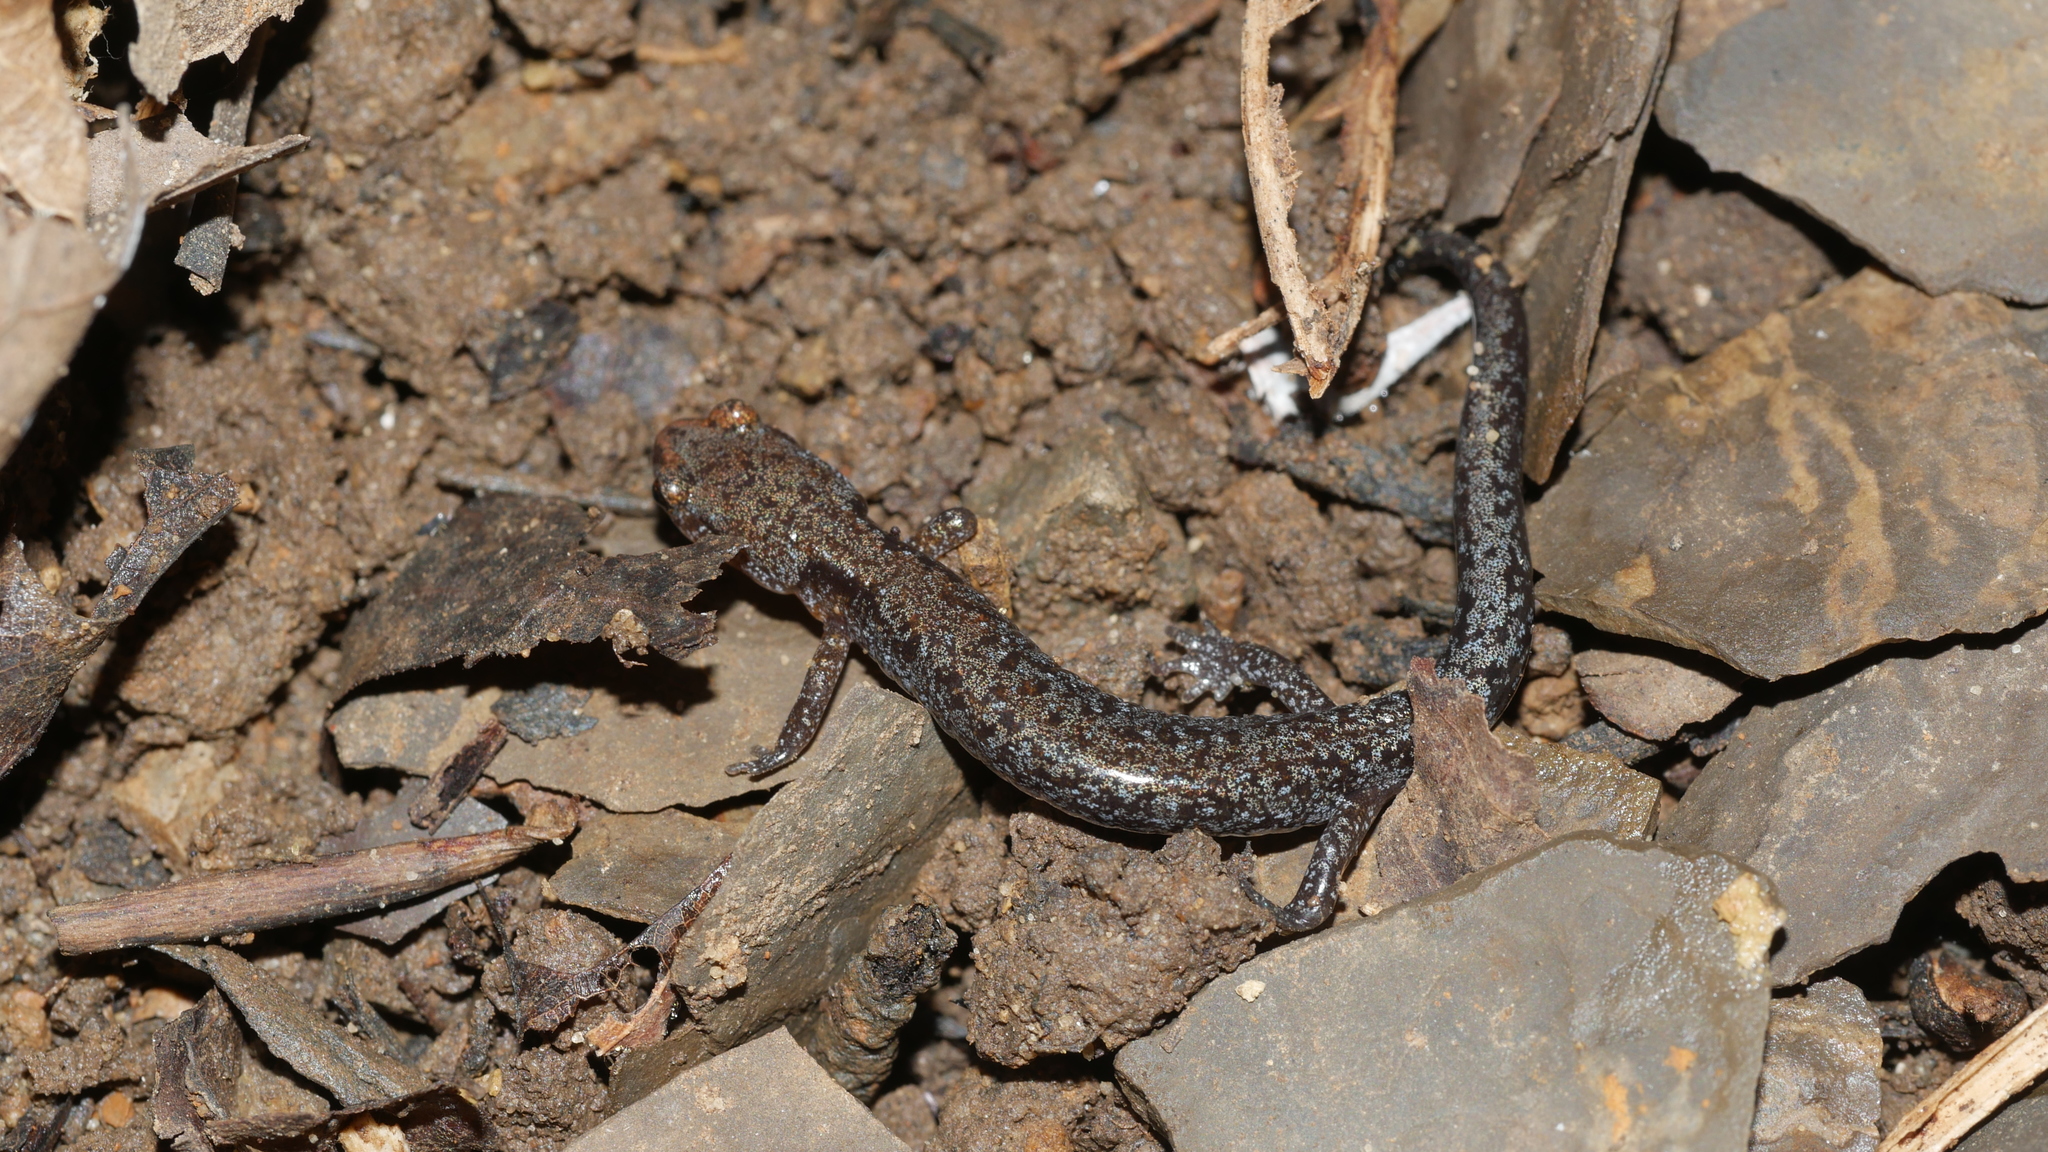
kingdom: Animalia
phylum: Chordata
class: Amphibia
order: Caudata
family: Plethodontidae
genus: Plethodon
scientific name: Plethodon
